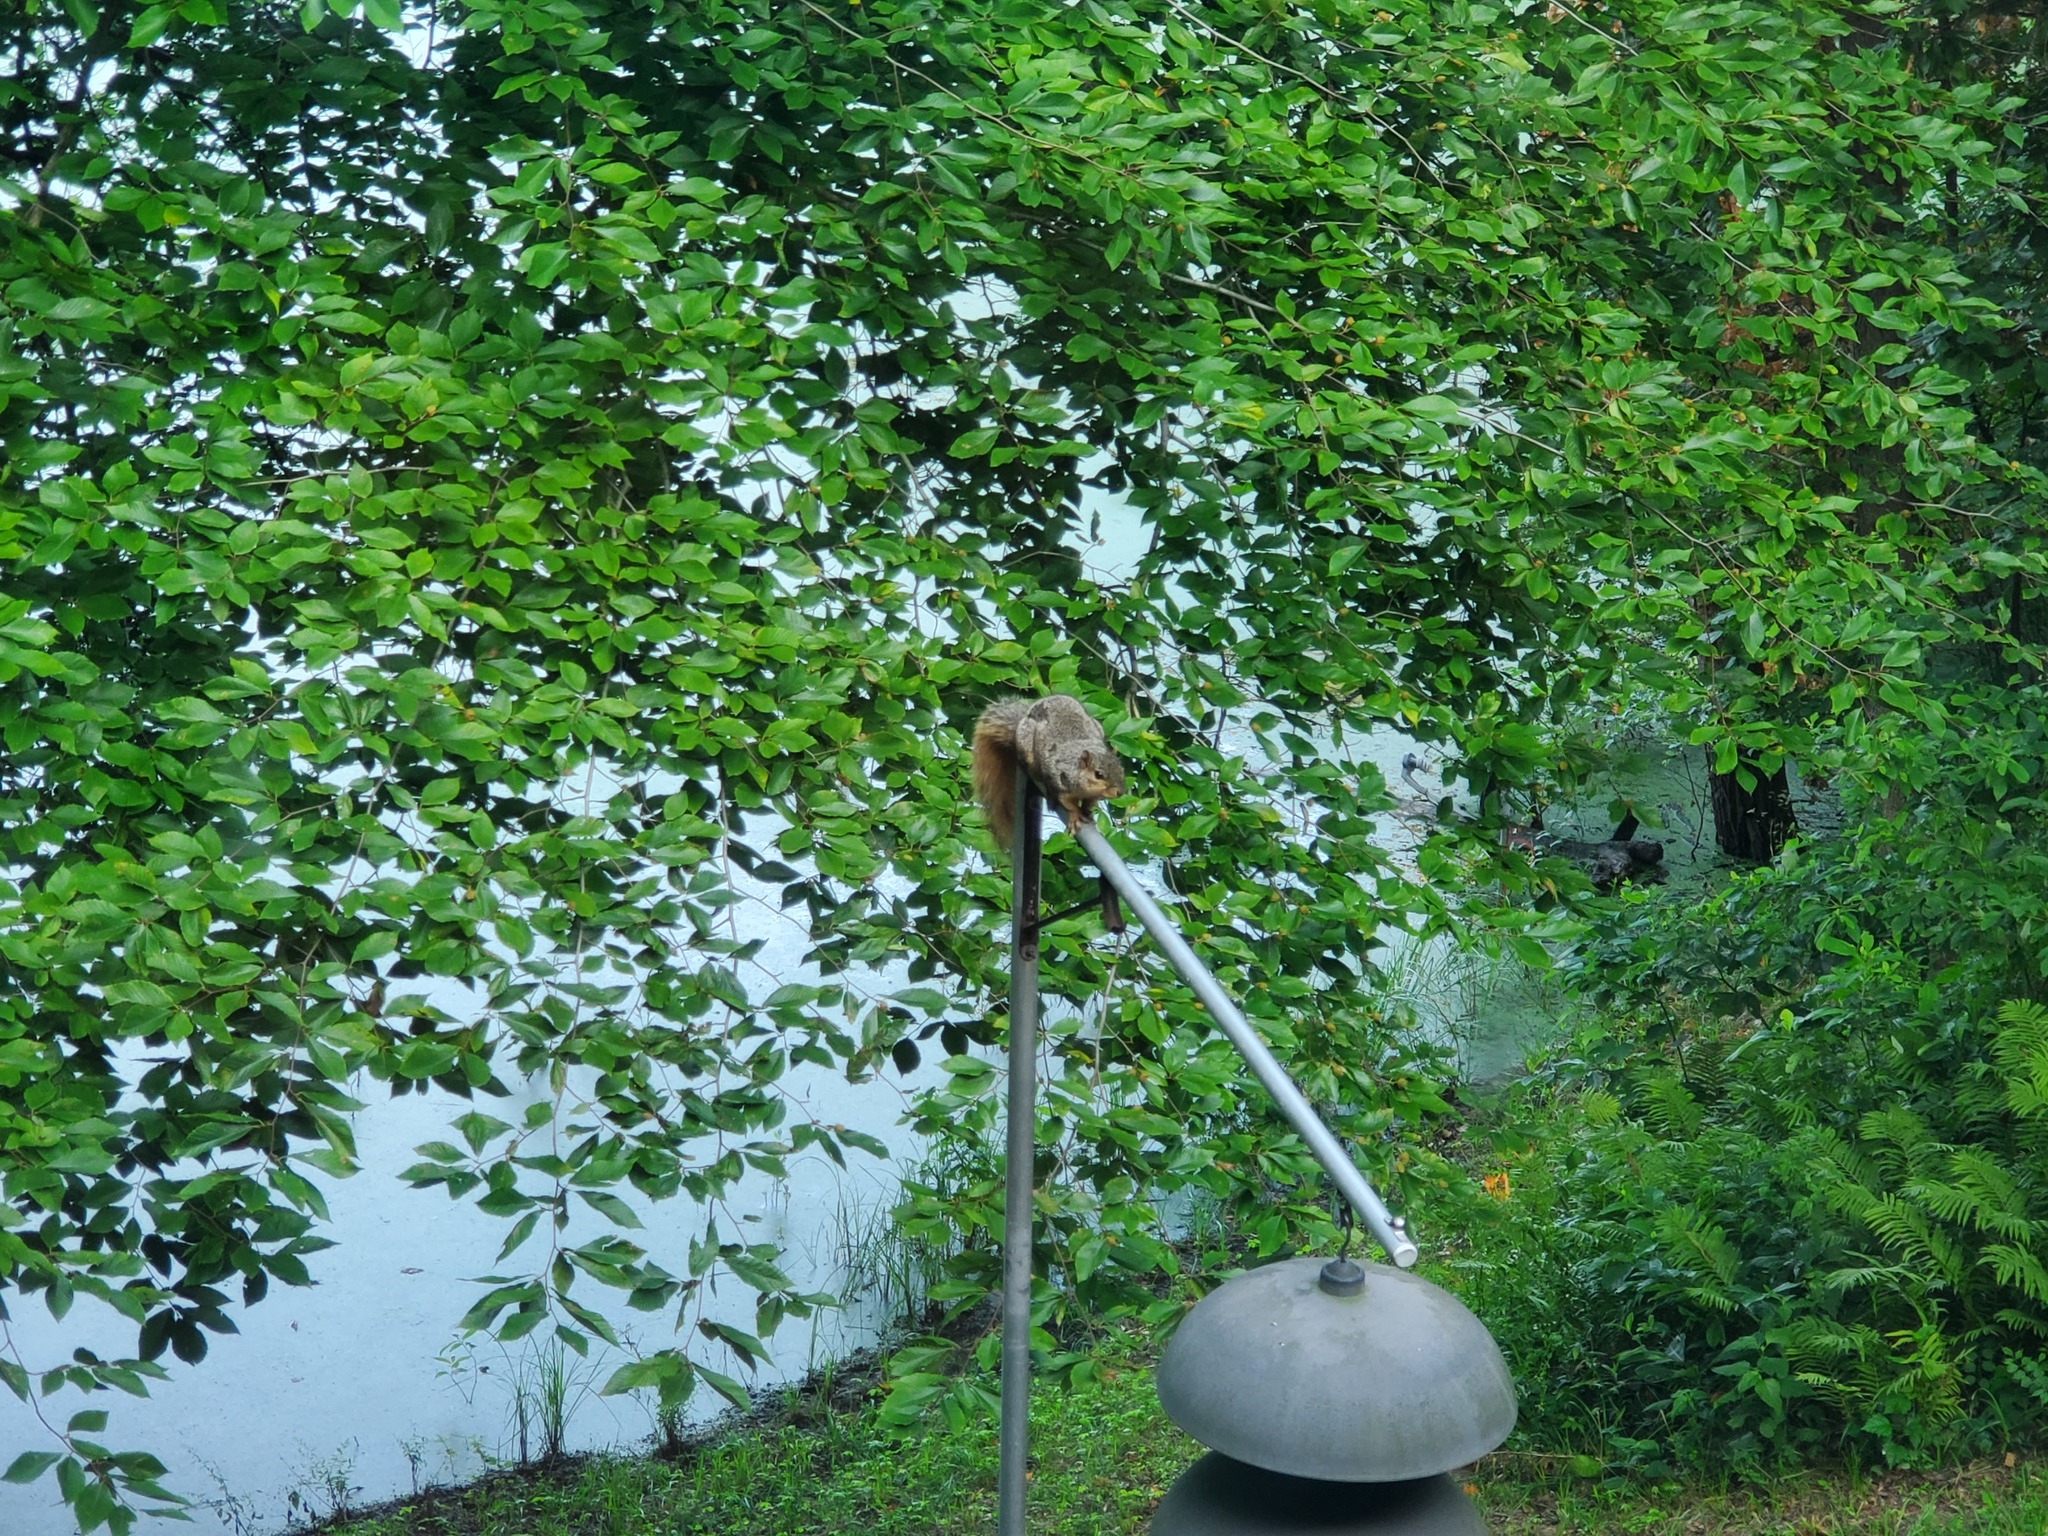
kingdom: Animalia
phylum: Chordata
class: Mammalia
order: Rodentia
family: Sciuridae
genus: Sciurus
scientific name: Sciurus niger
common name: Fox squirrel
